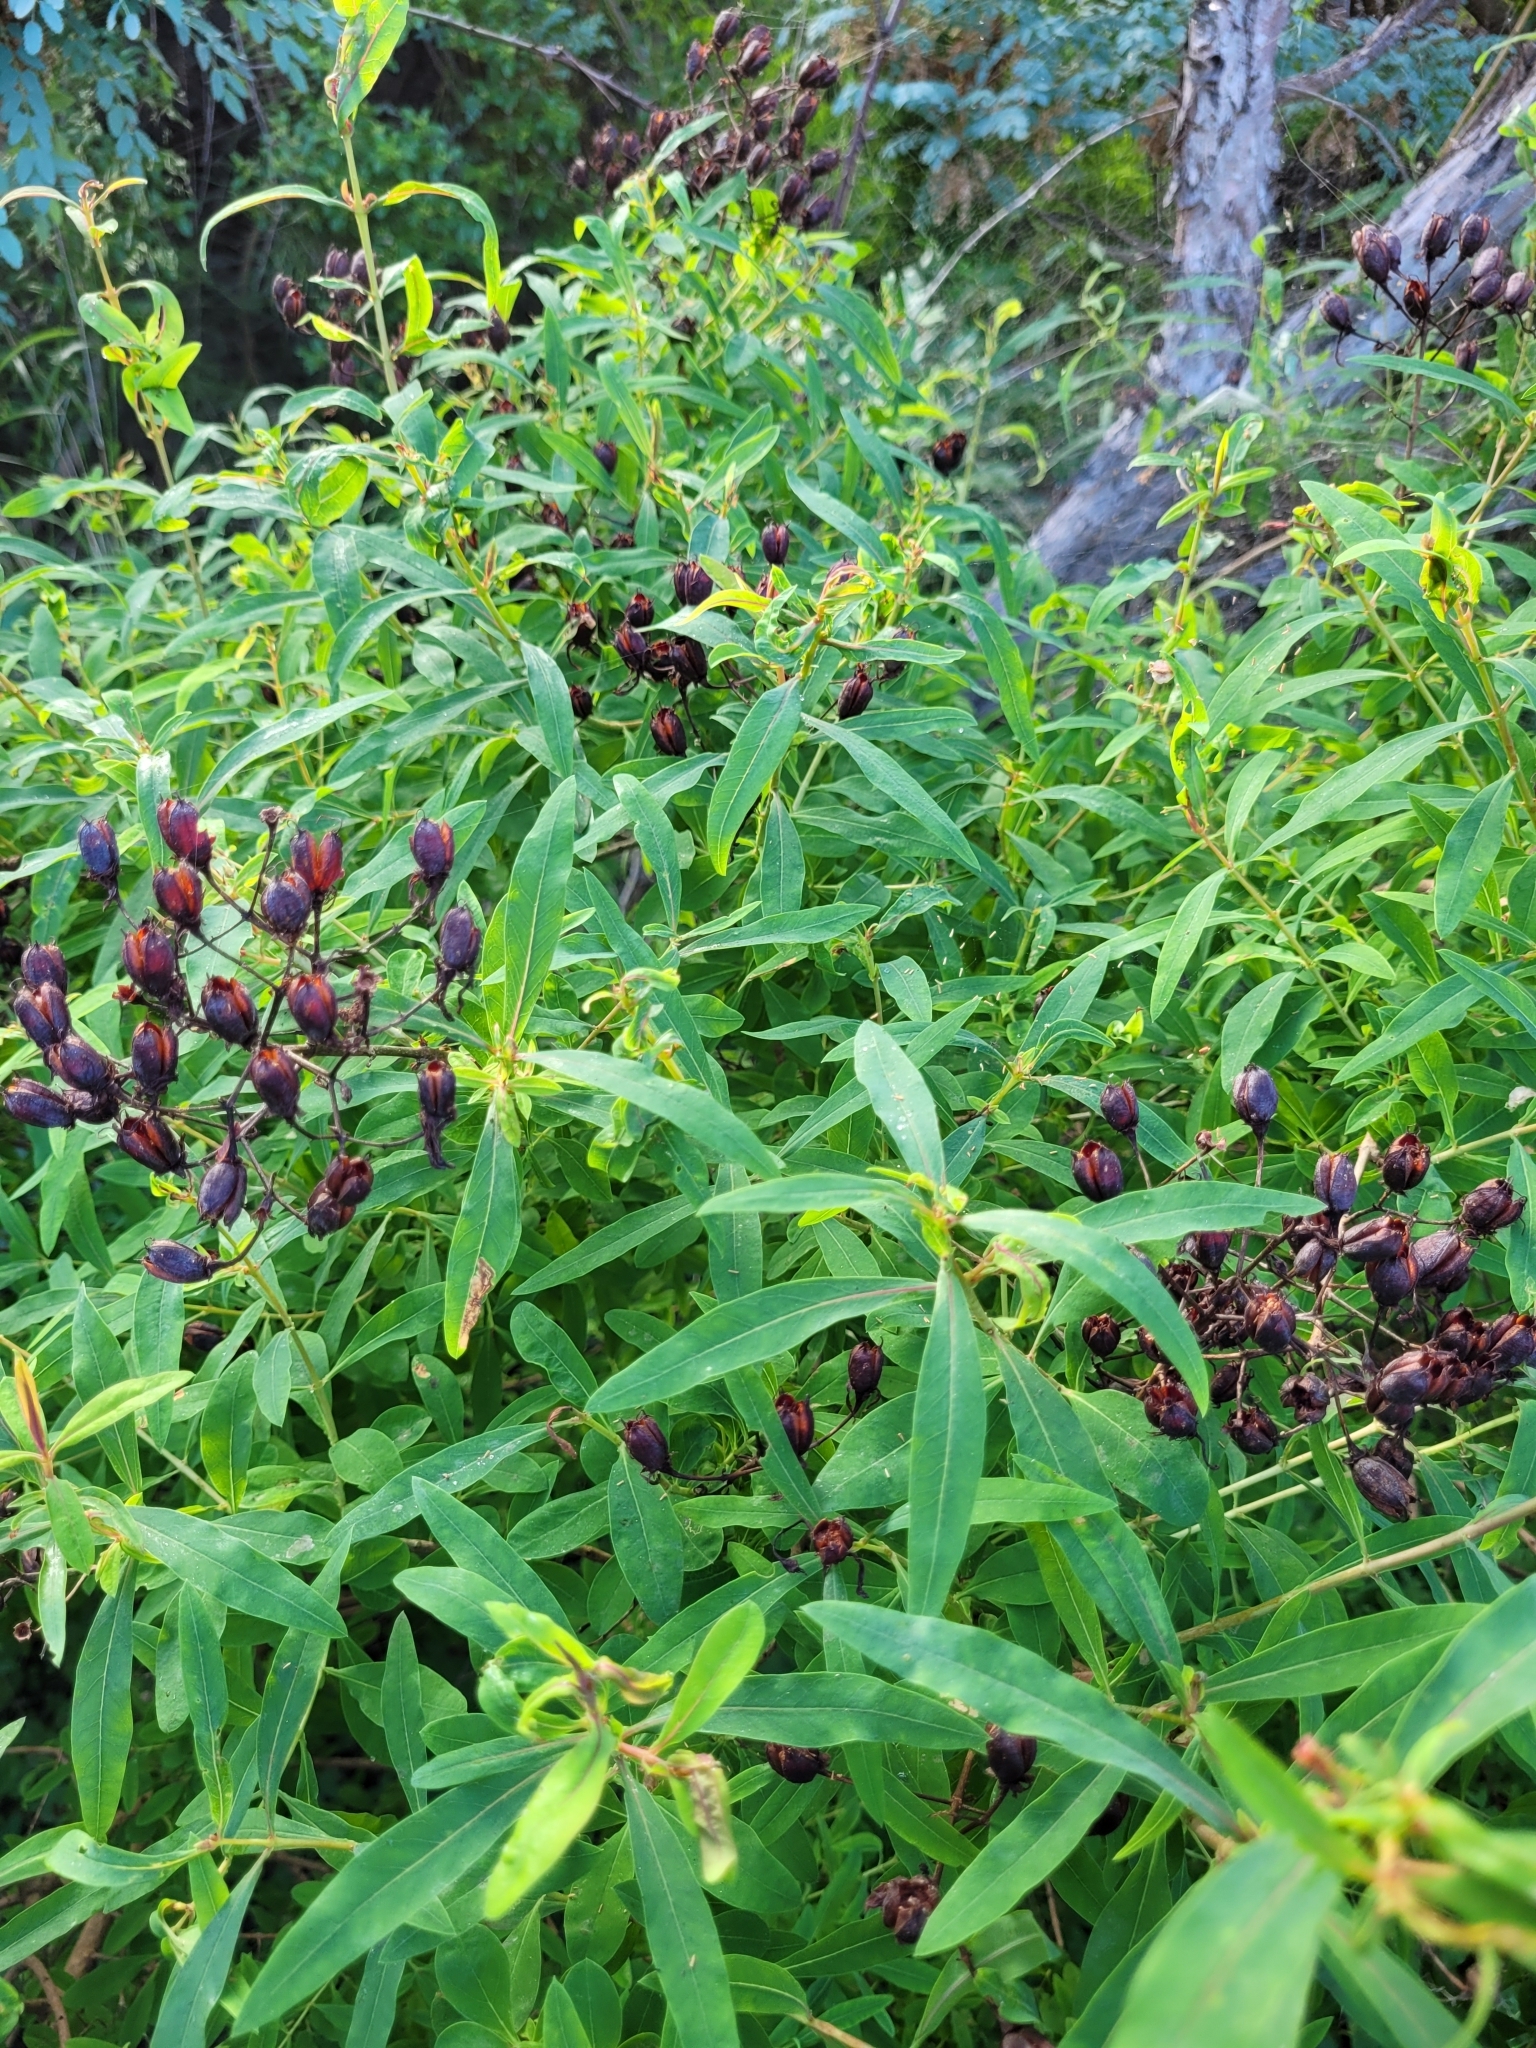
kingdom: Plantae
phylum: Tracheophyta
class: Magnoliopsida
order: Malpighiales
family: Hypericaceae
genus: Hypericum
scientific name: Hypericum canariense
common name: Canary island st. johnswort
